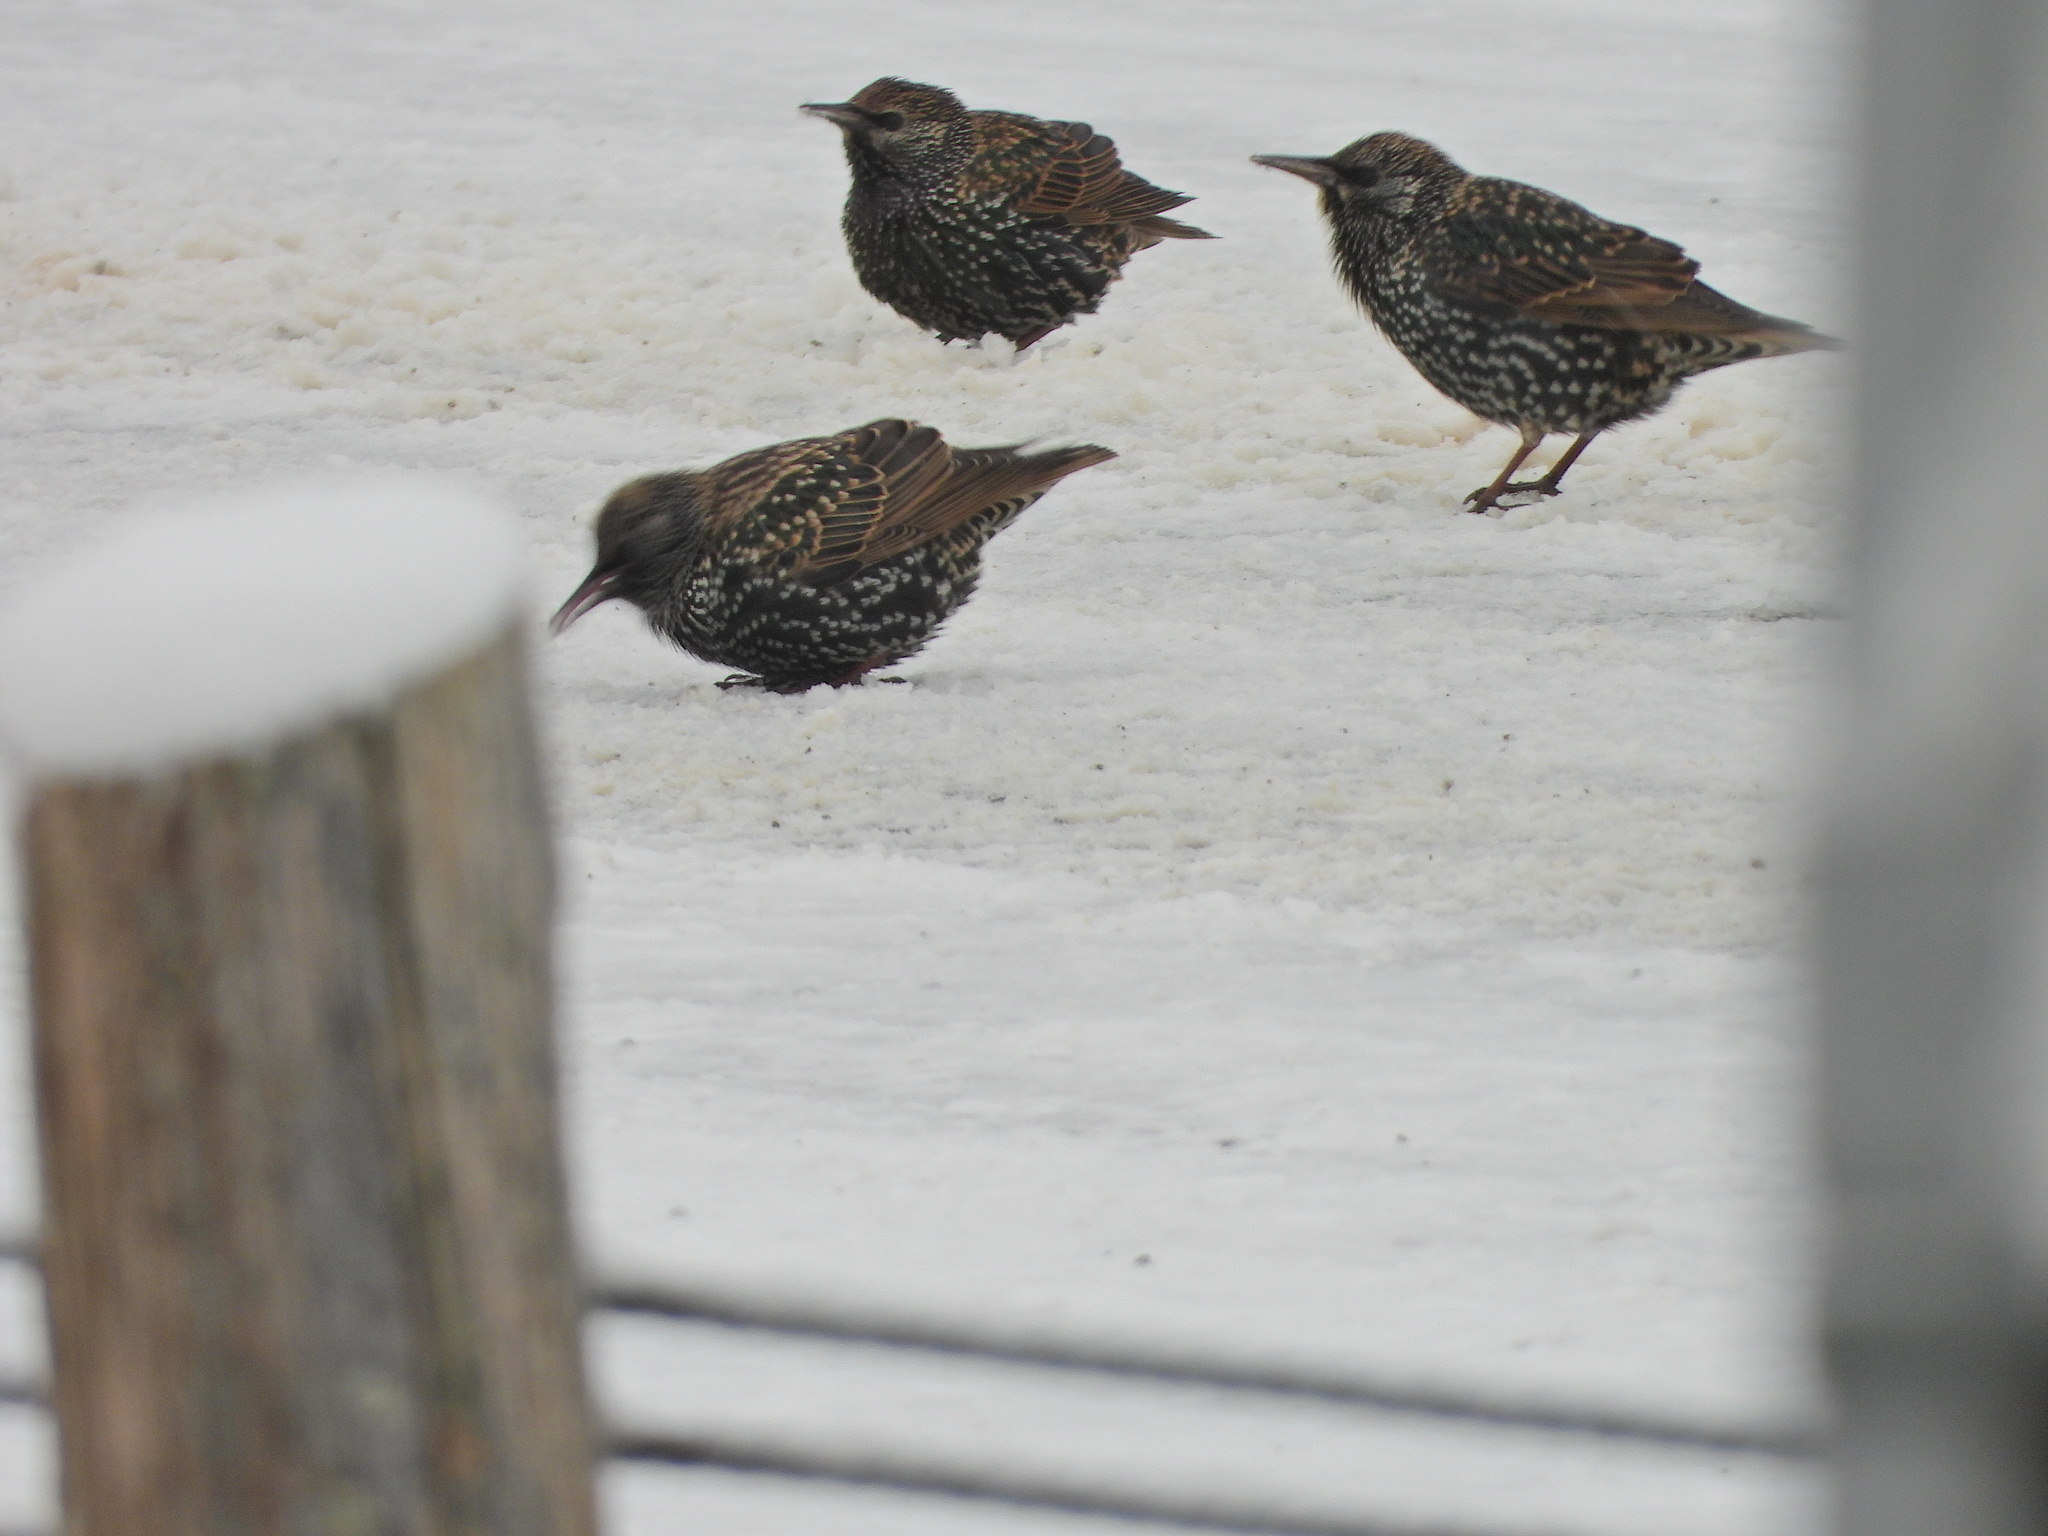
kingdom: Animalia
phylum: Chordata
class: Aves
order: Passeriformes
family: Sturnidae
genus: Sturnus
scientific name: Sturnus vulgaris
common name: Common starling
